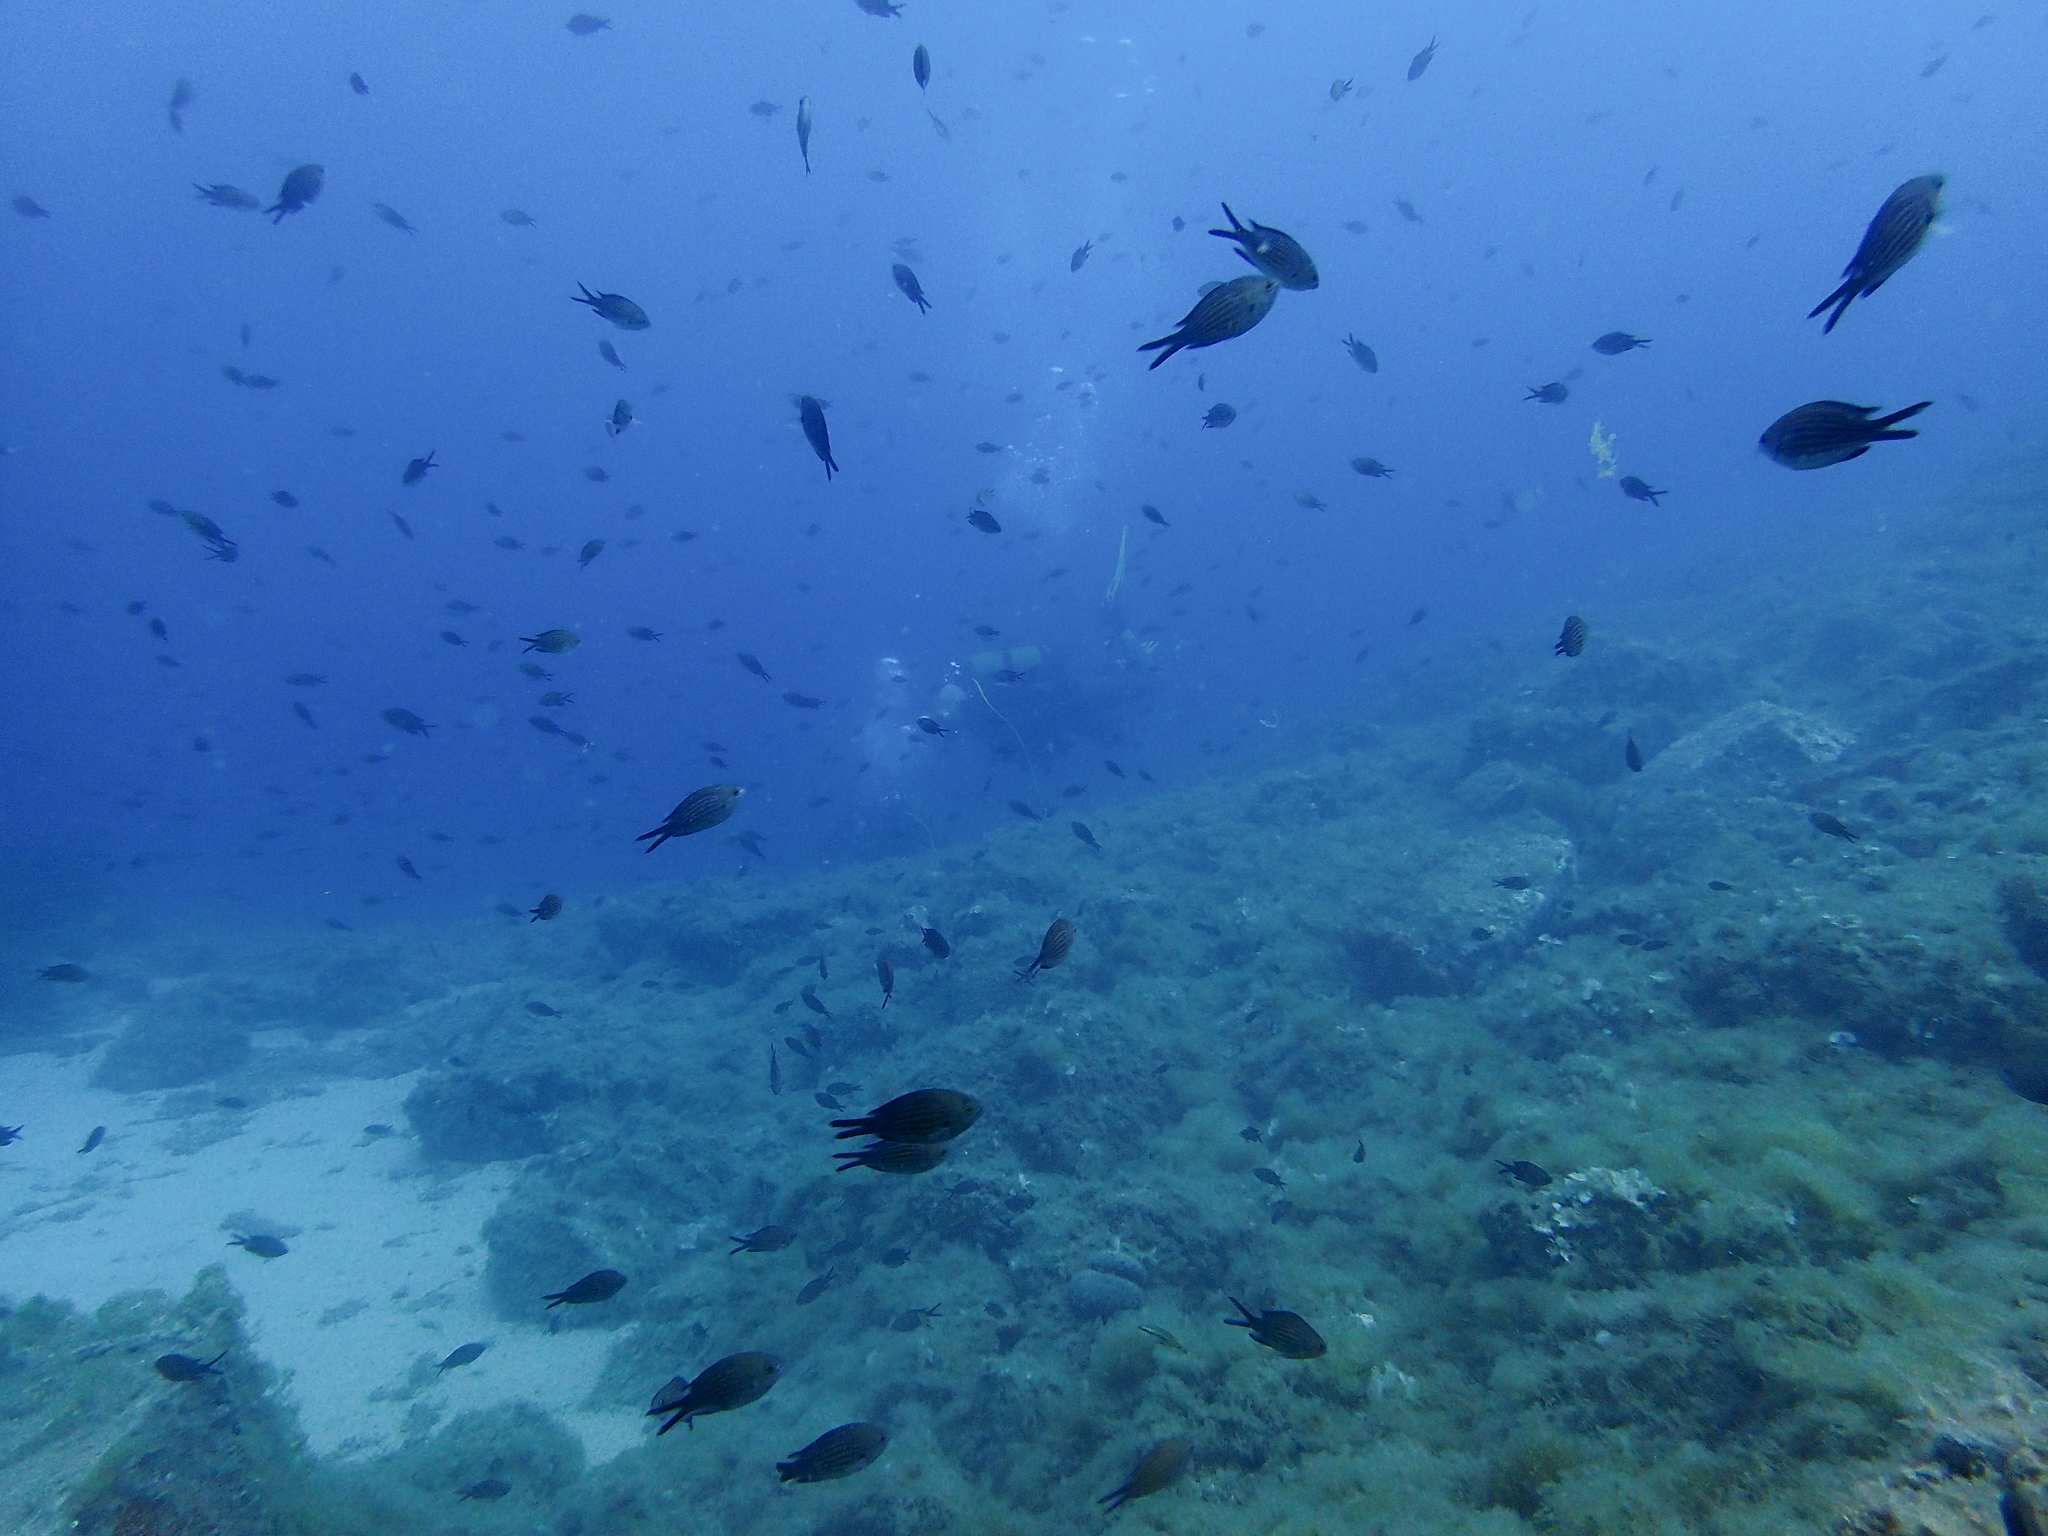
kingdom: Animalia
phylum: Chordata
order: Perciformes
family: Pomacentridae
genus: Chromis
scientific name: Chromis chromis
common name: Damselfish
